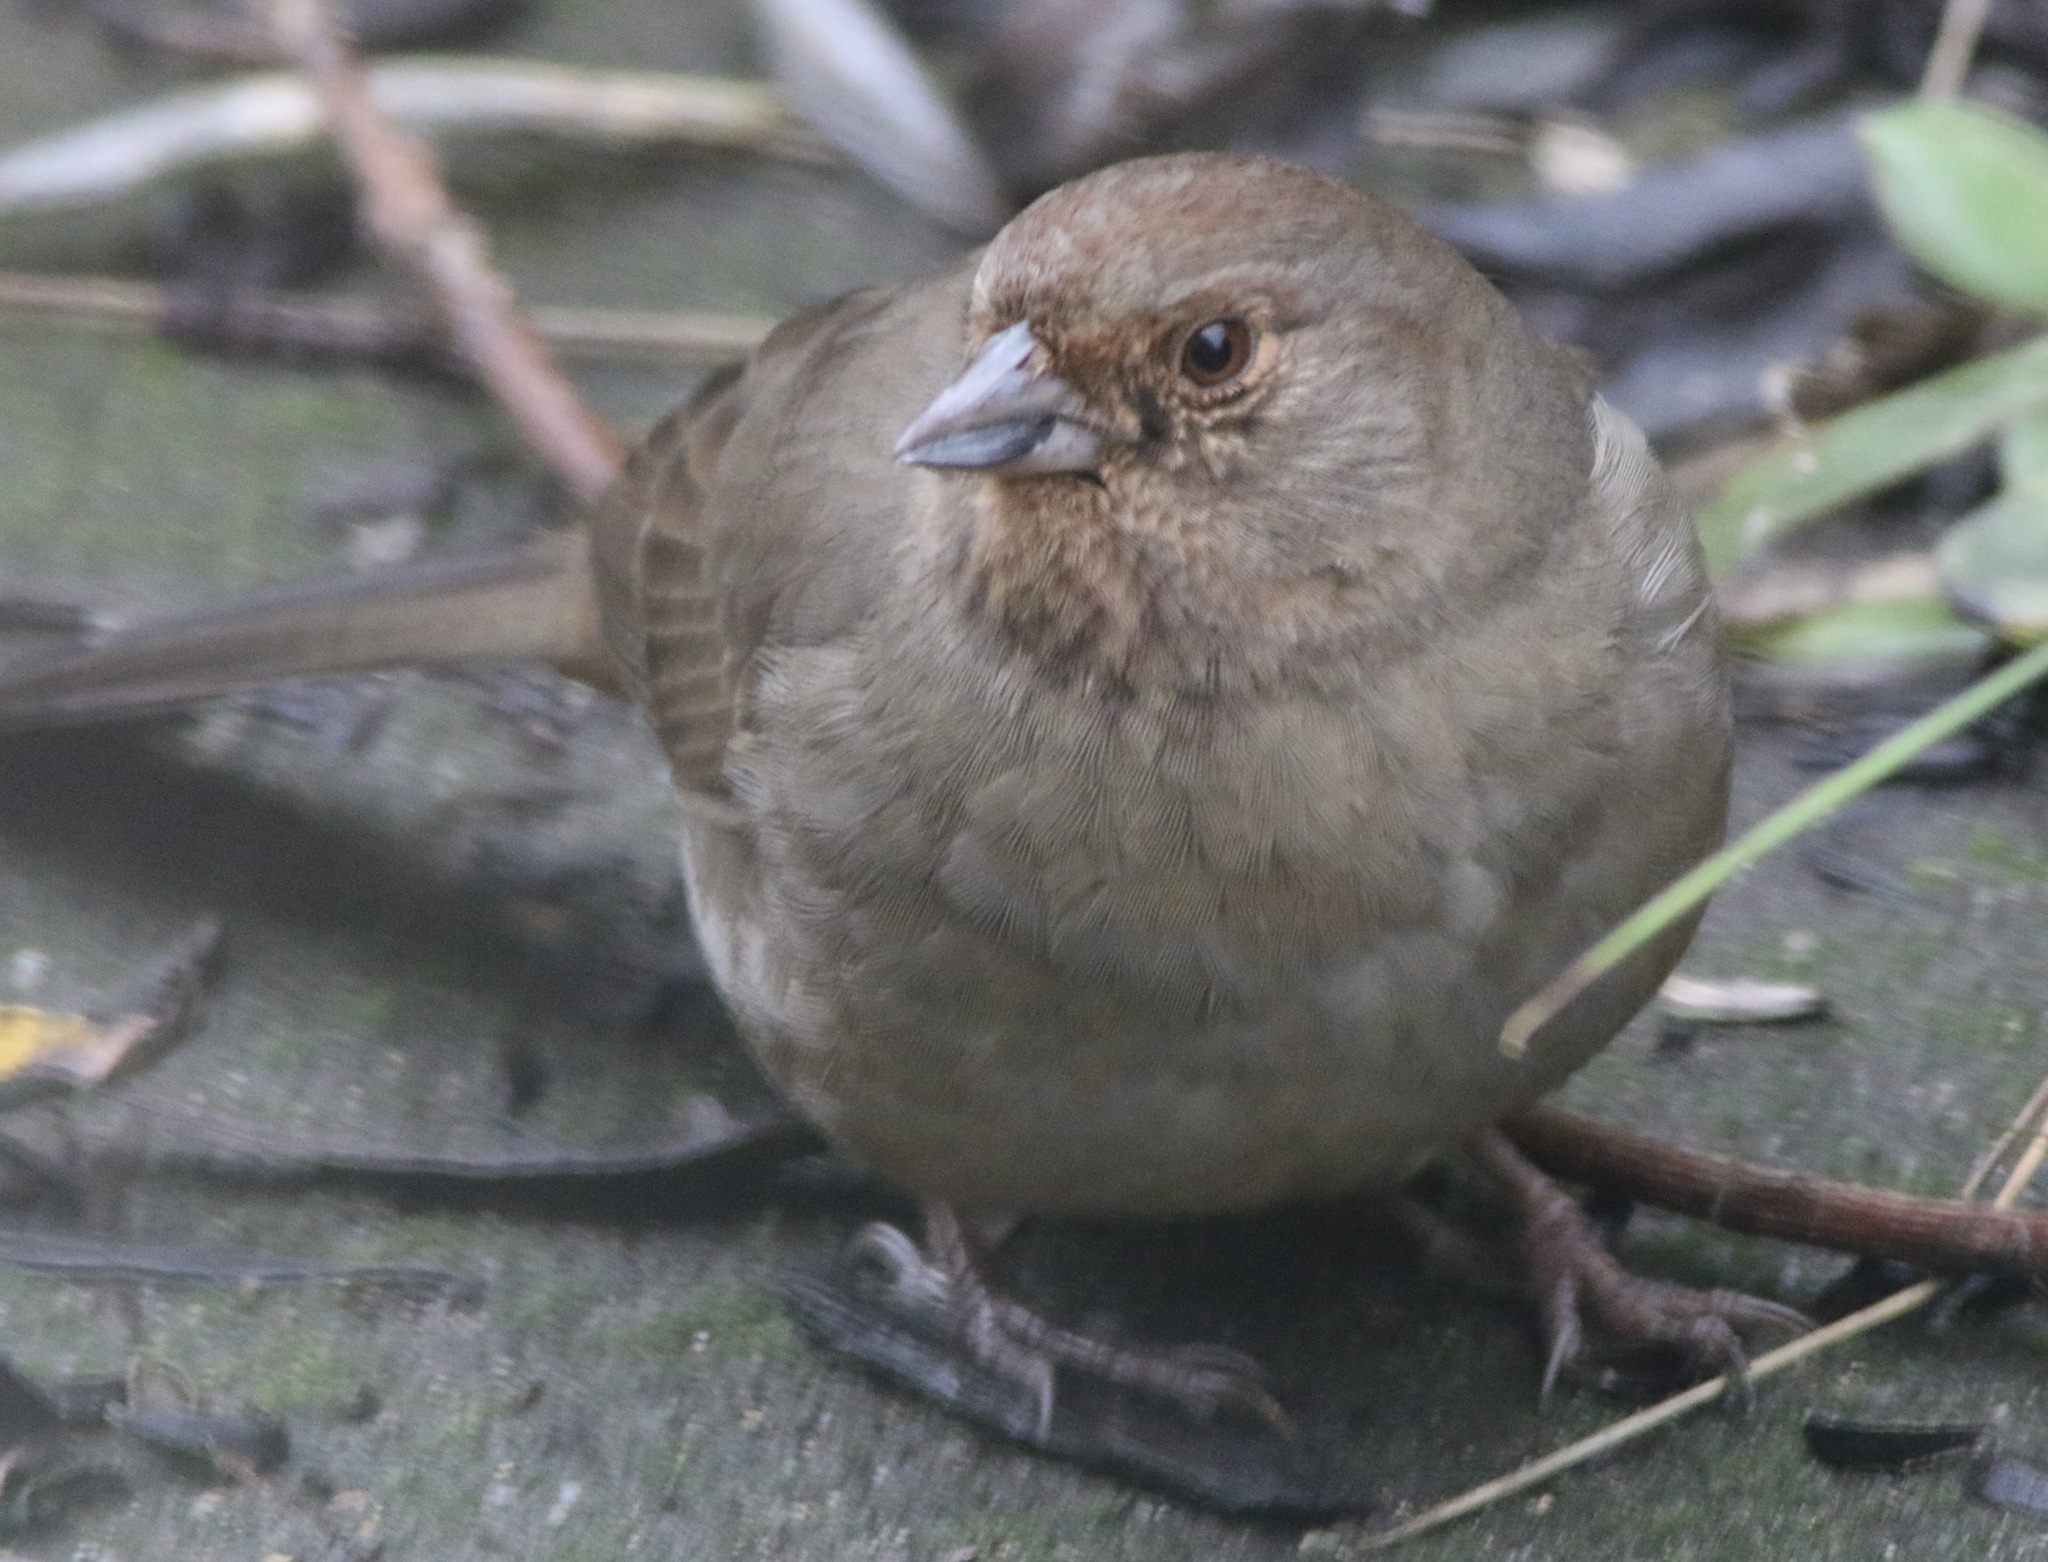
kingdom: Animalia
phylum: Chordata
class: Aves
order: Passeriformes
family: Passerellidae
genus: Melozone
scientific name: Melozone crissalis
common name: California towhee
